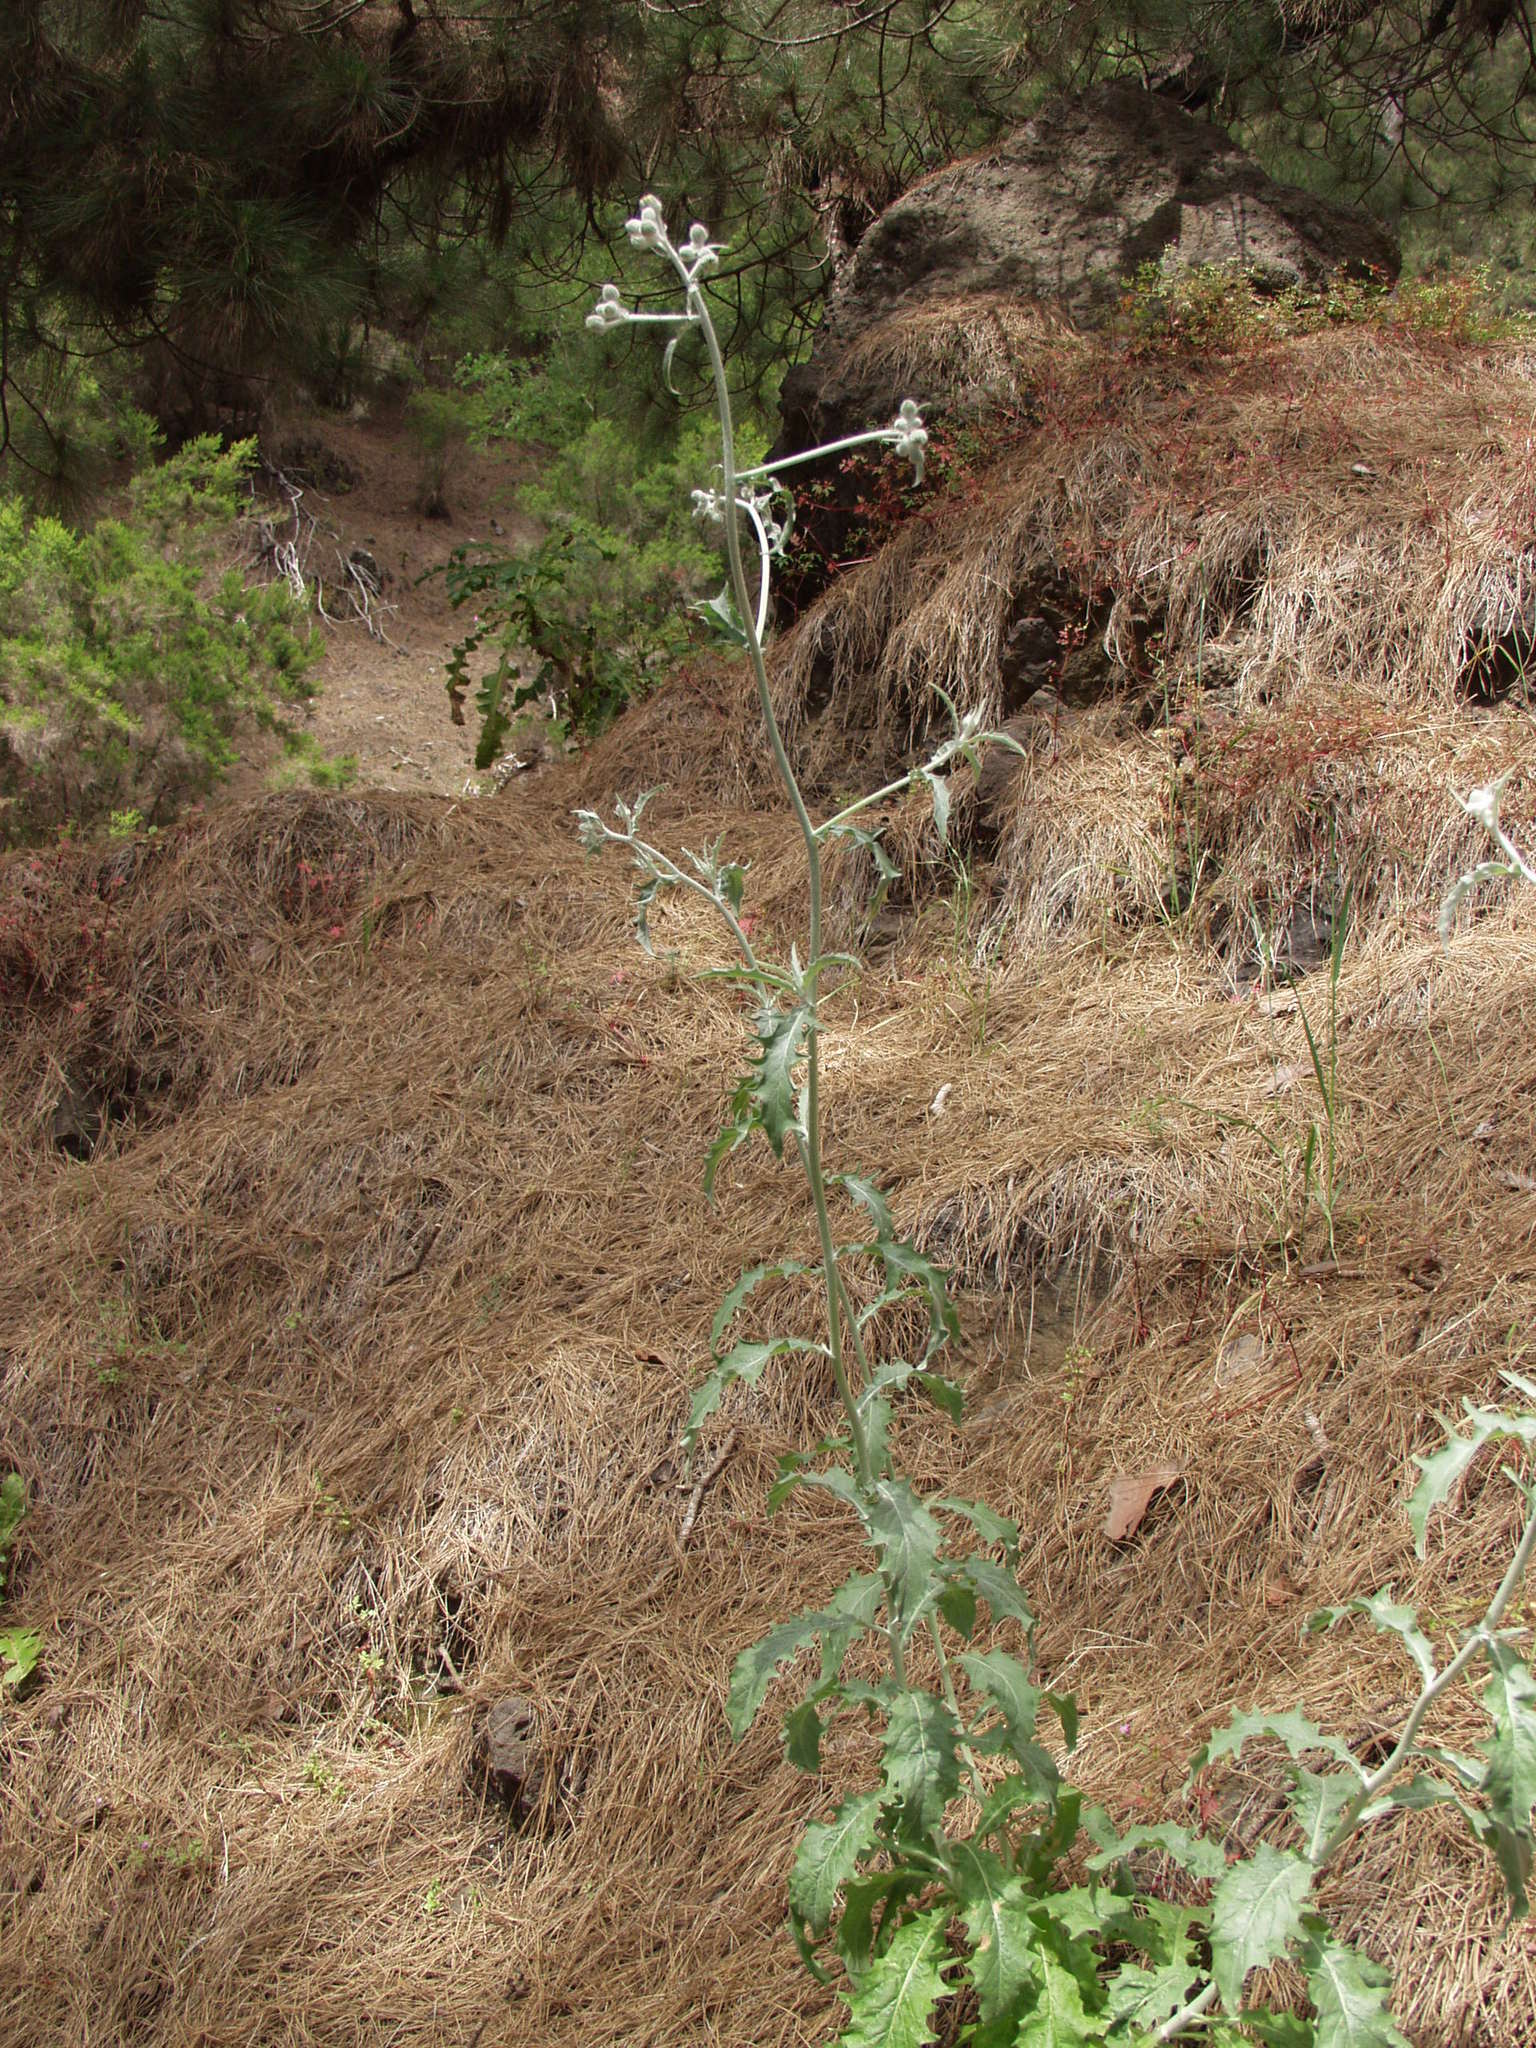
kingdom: Plantae
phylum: Tracheophyta
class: Magnoliopsida
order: Asterales
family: Asteraceae
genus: Tolpis
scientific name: Tolpis lagopoda
